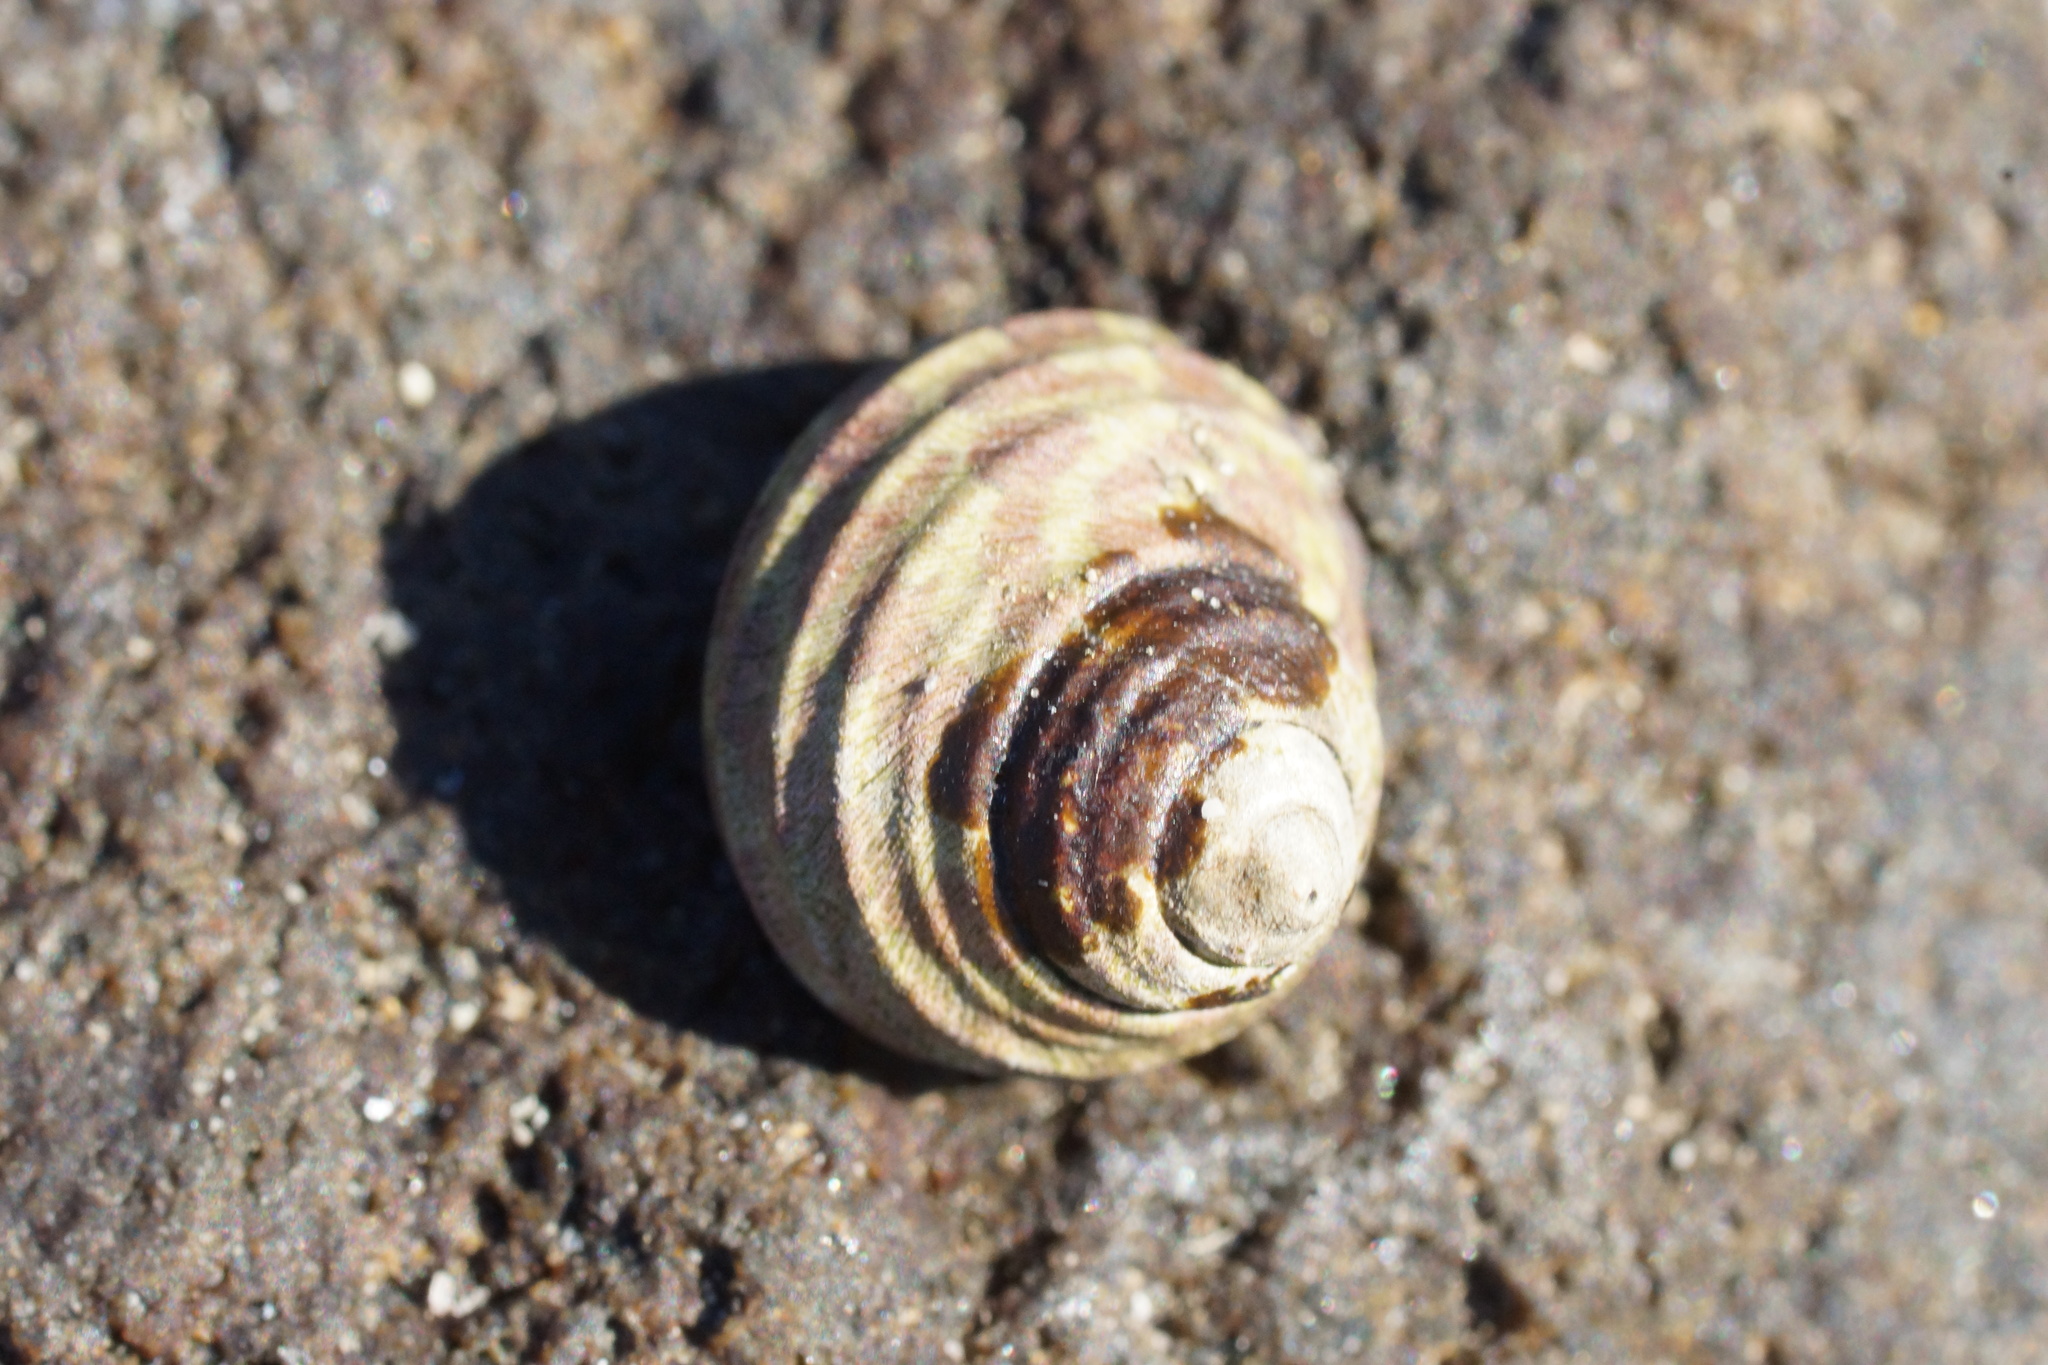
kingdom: Animalia
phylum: Mollusca
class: Gastropoda
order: Trochida
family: Trochidae
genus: Austrocochlea
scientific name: Austrocochlea constricta
